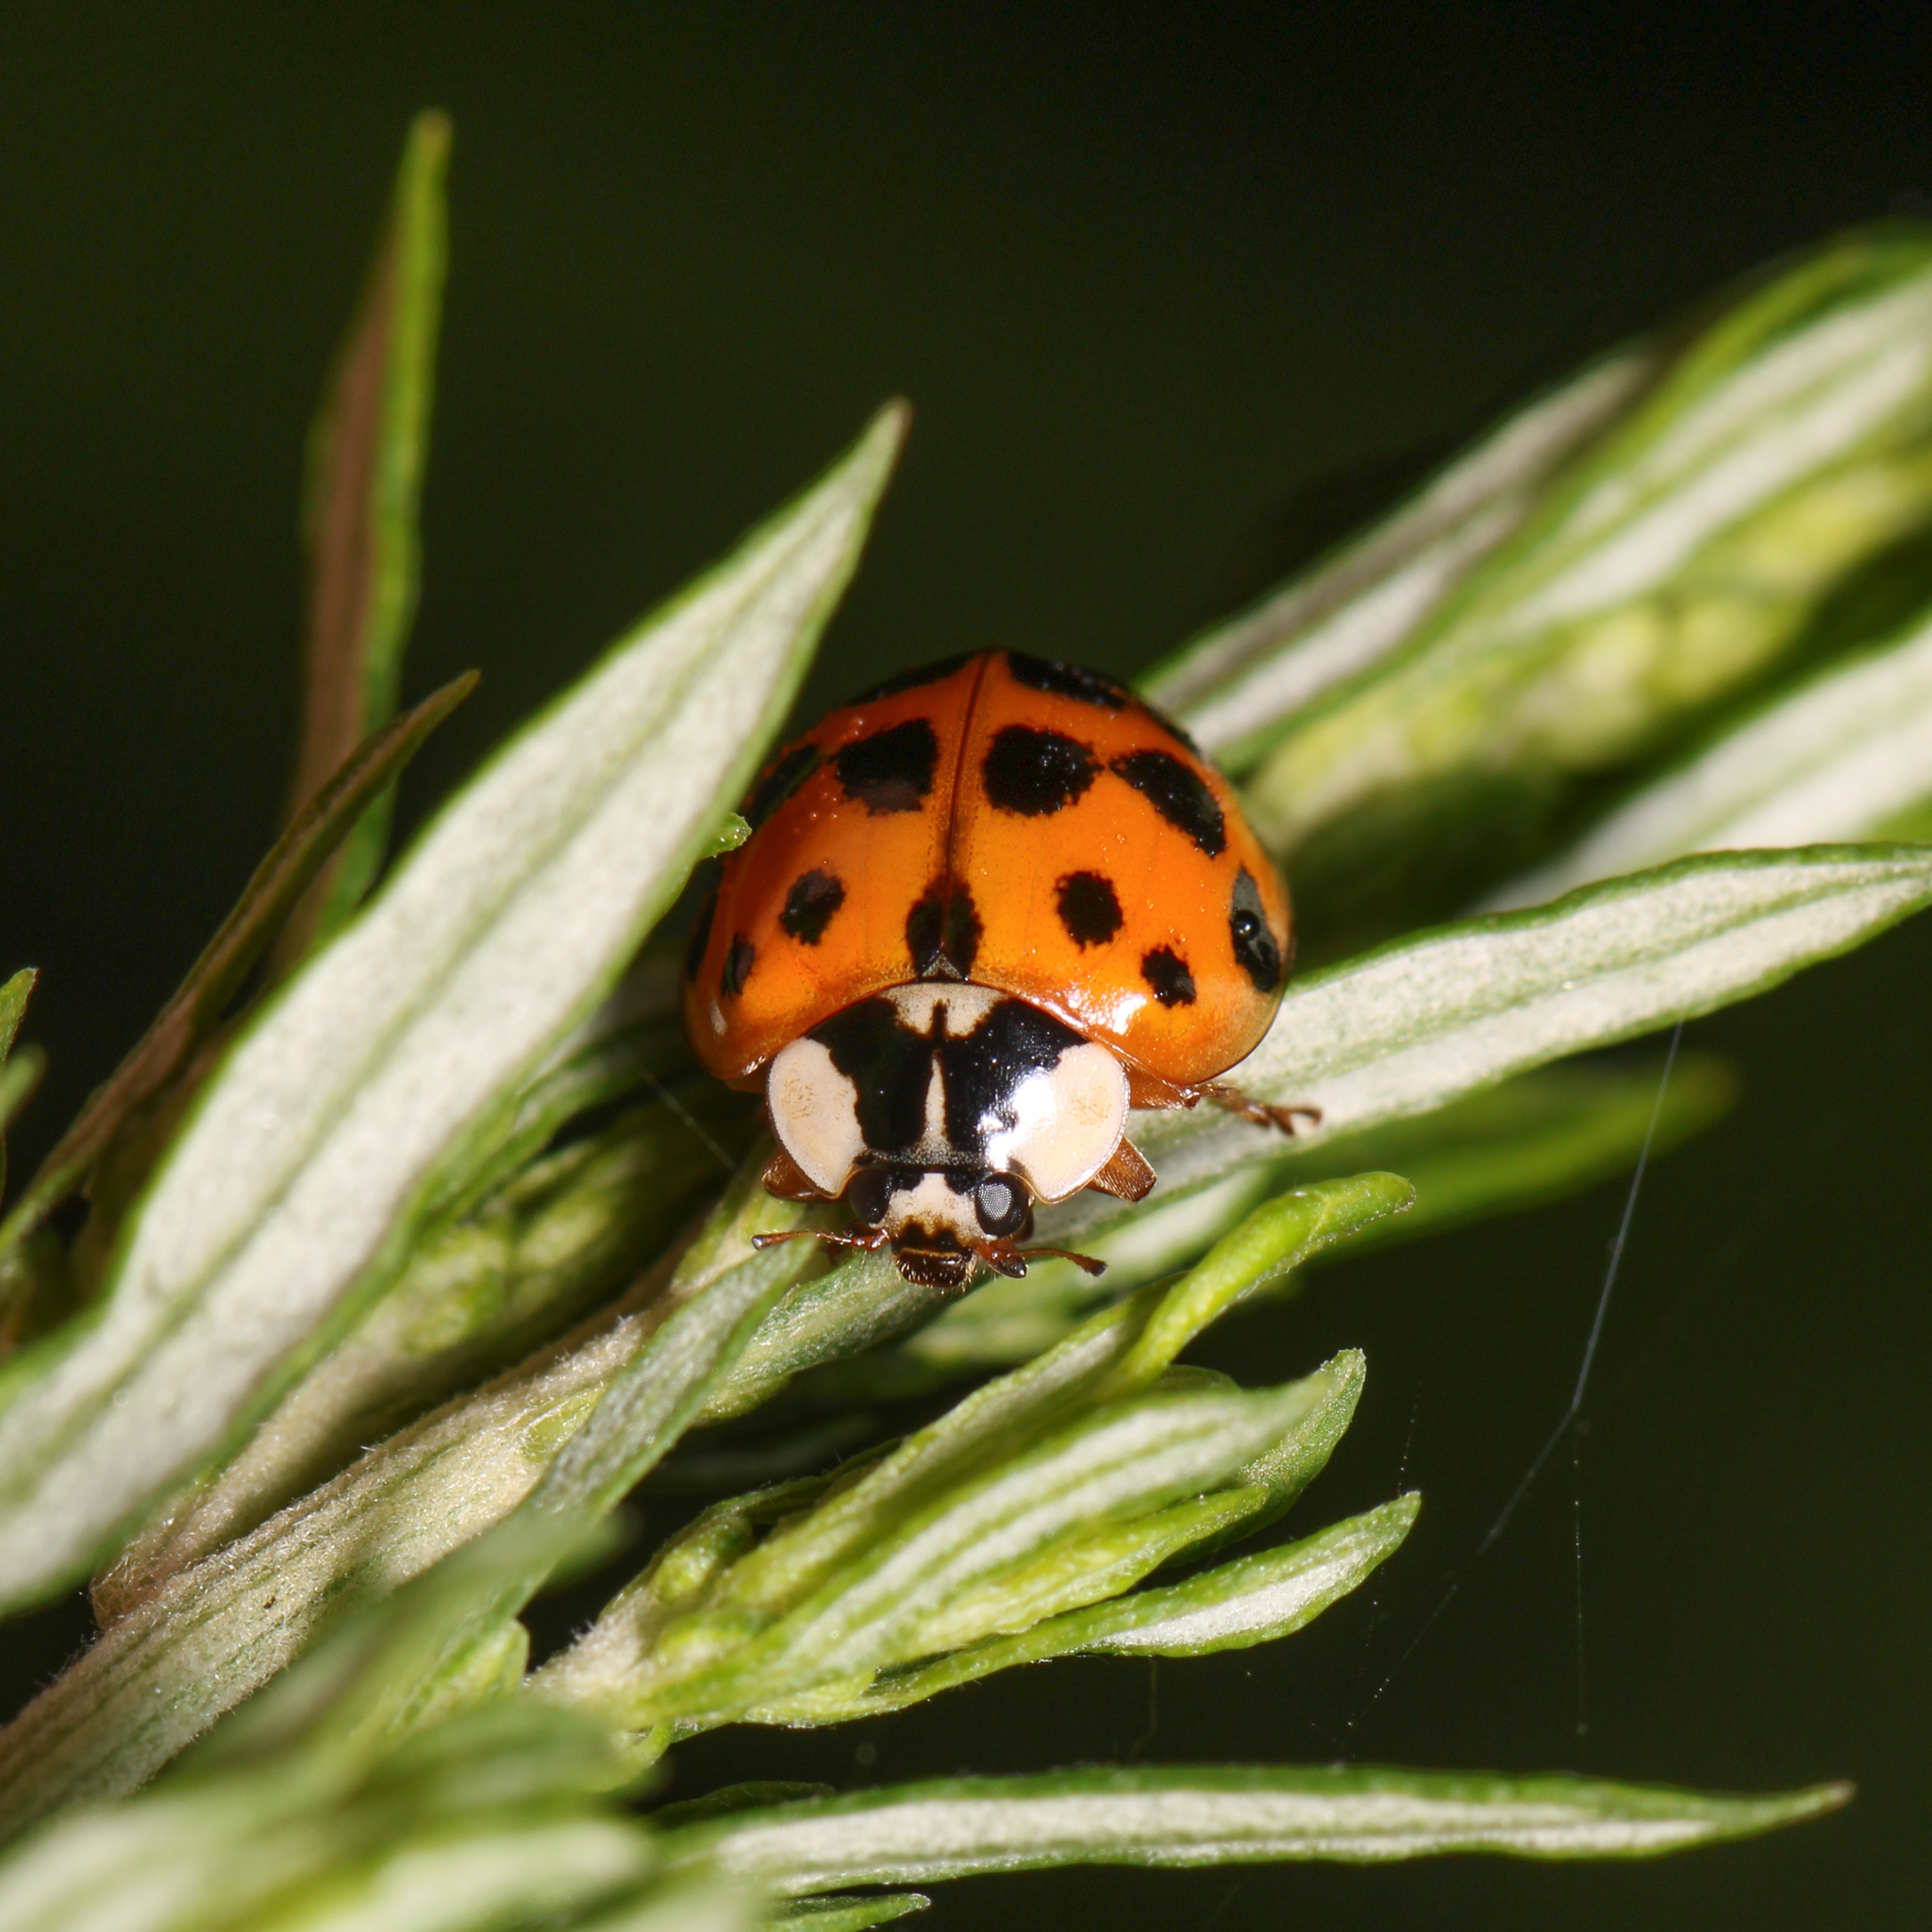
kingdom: Animalia
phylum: Arthropoda
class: Insecta
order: Coleoptera
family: Coccinellidae
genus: Harmonia
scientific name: Harmonia axyridis
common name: Harlequin ladybird
